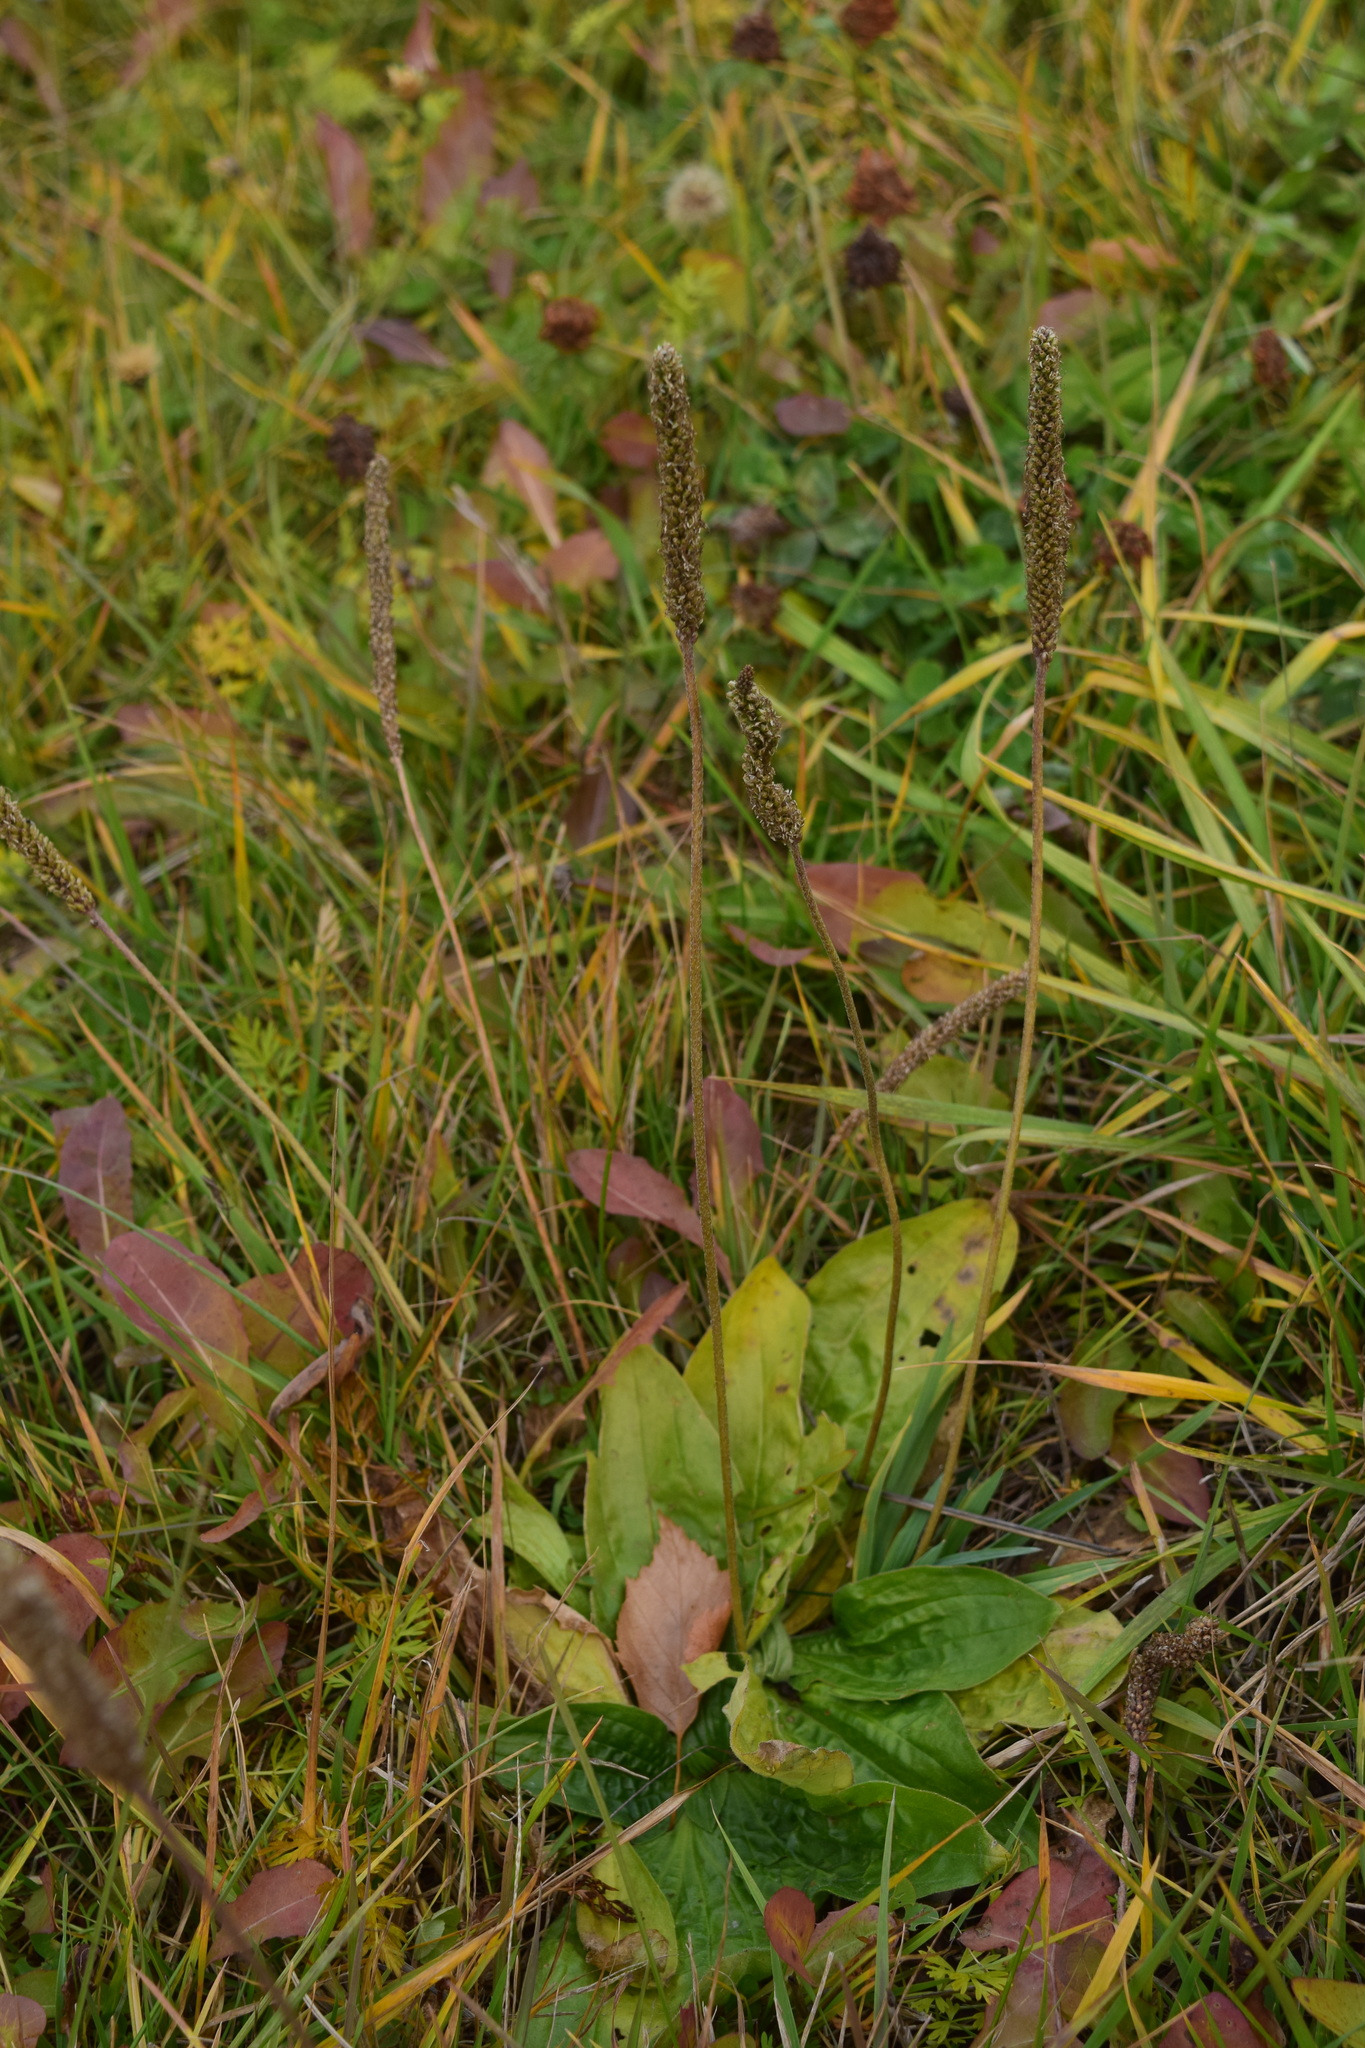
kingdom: Plantae
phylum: Tracheophyta
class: Magnoliopsida
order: Lamiales
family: Plantaginaceae
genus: Plantago
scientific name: Plantago media
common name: Hoary plantain
